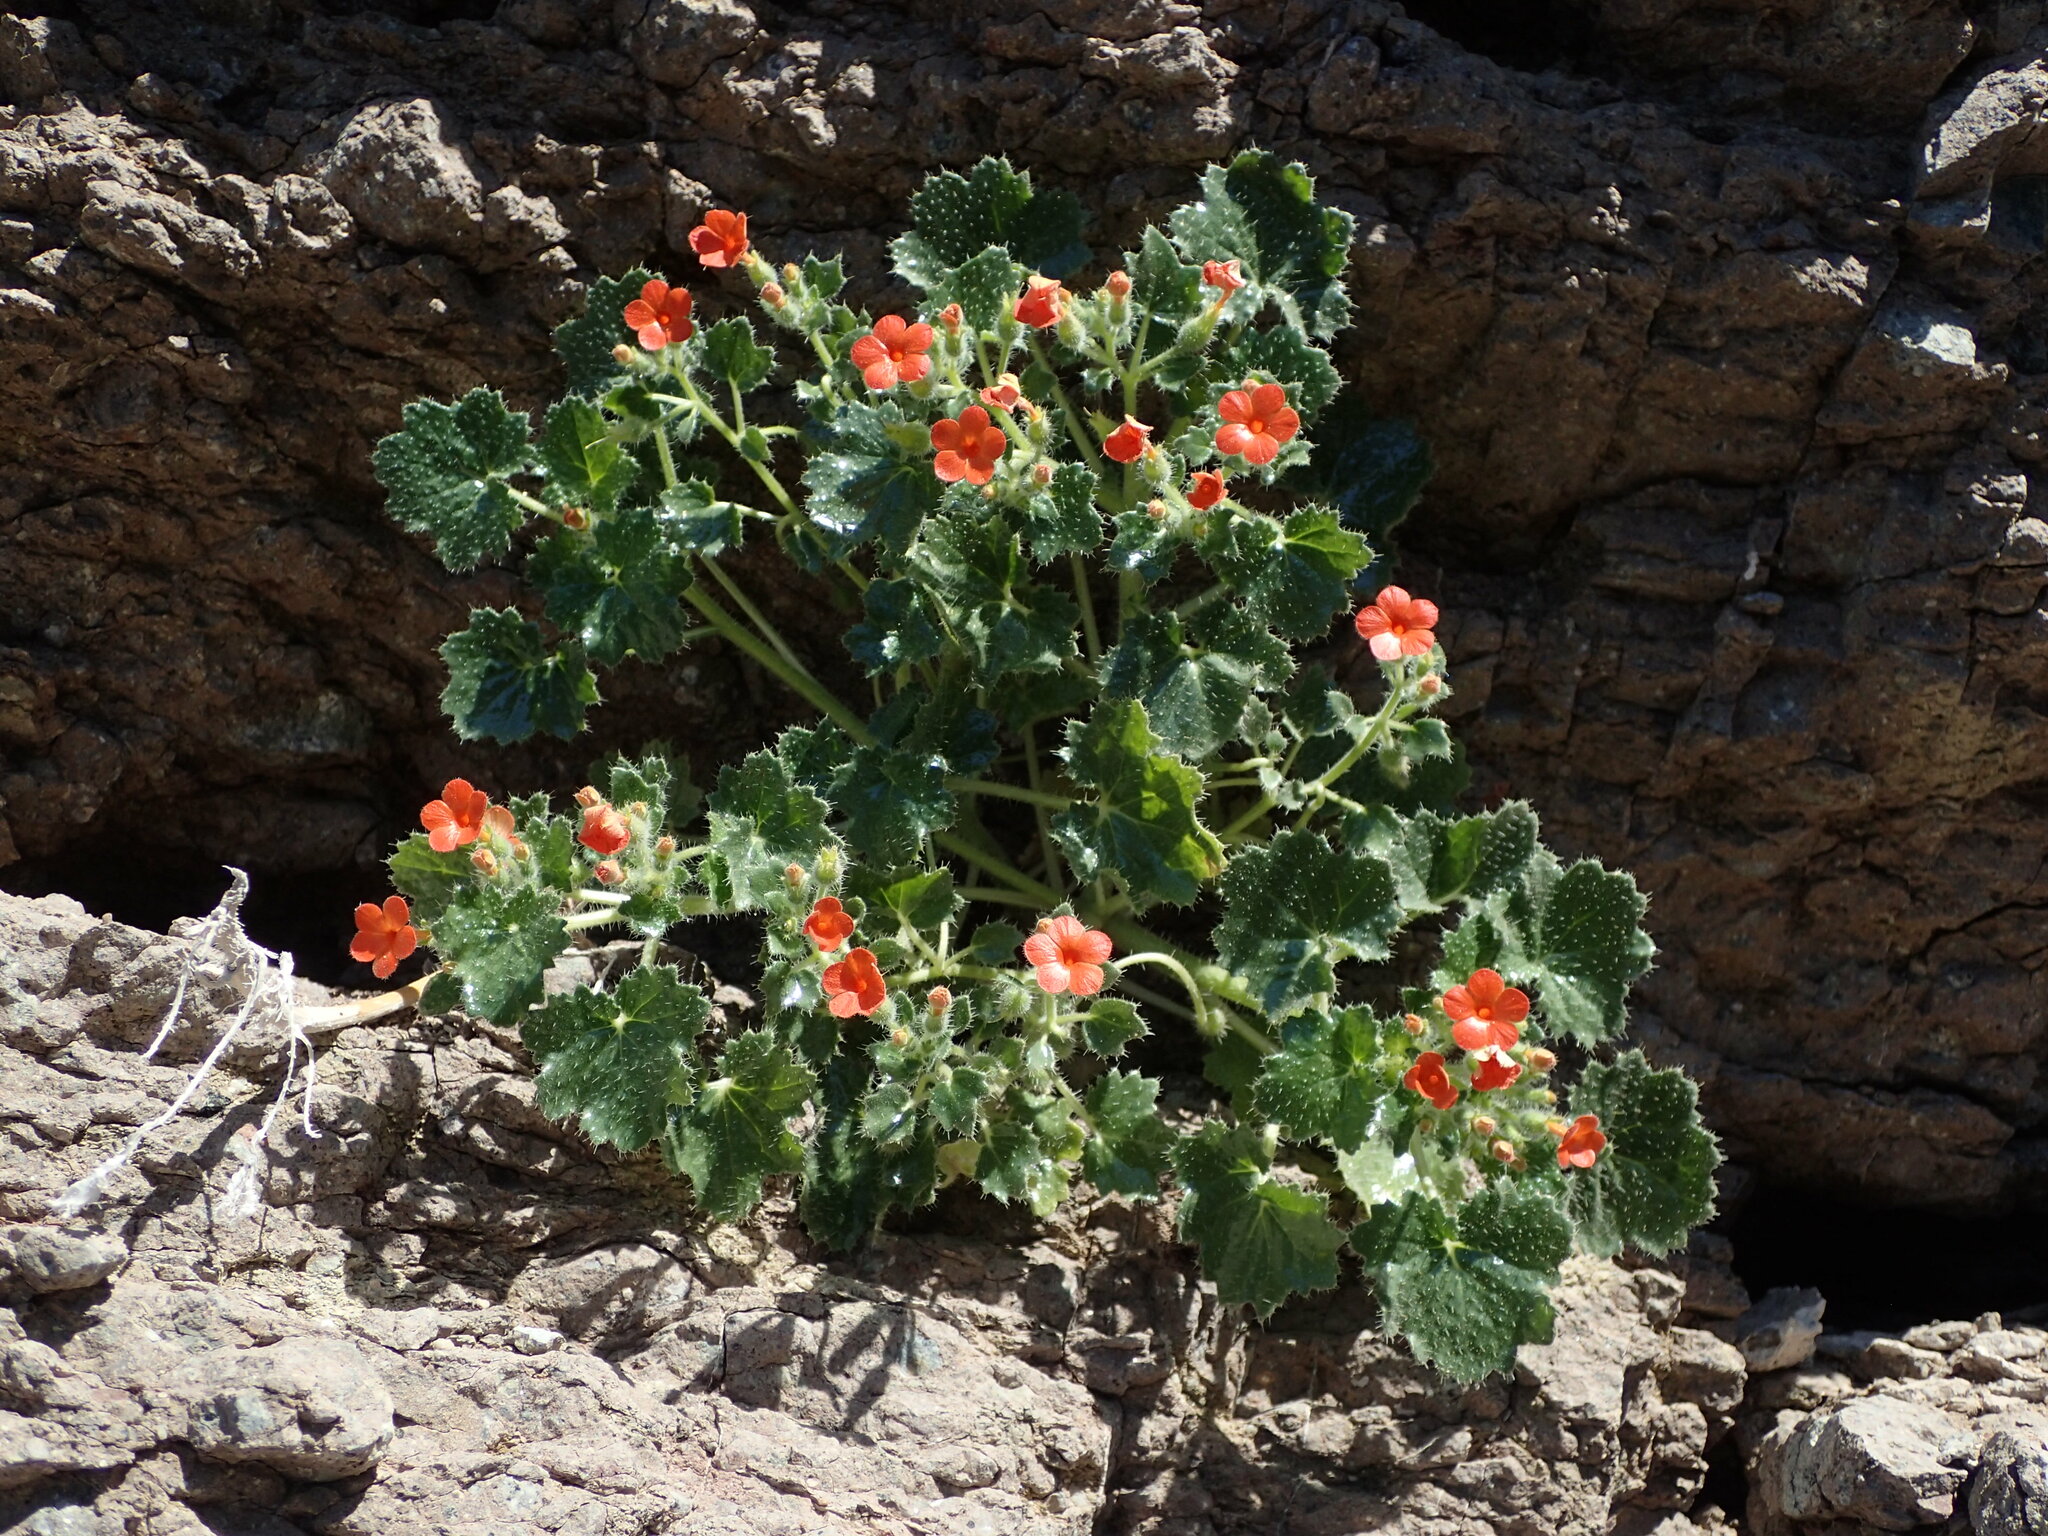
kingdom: Plantae
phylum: Tracheophyta
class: Magnoliopsida
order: Cornales
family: Loasaceae
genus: Eucnide
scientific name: Eucnide aurea
